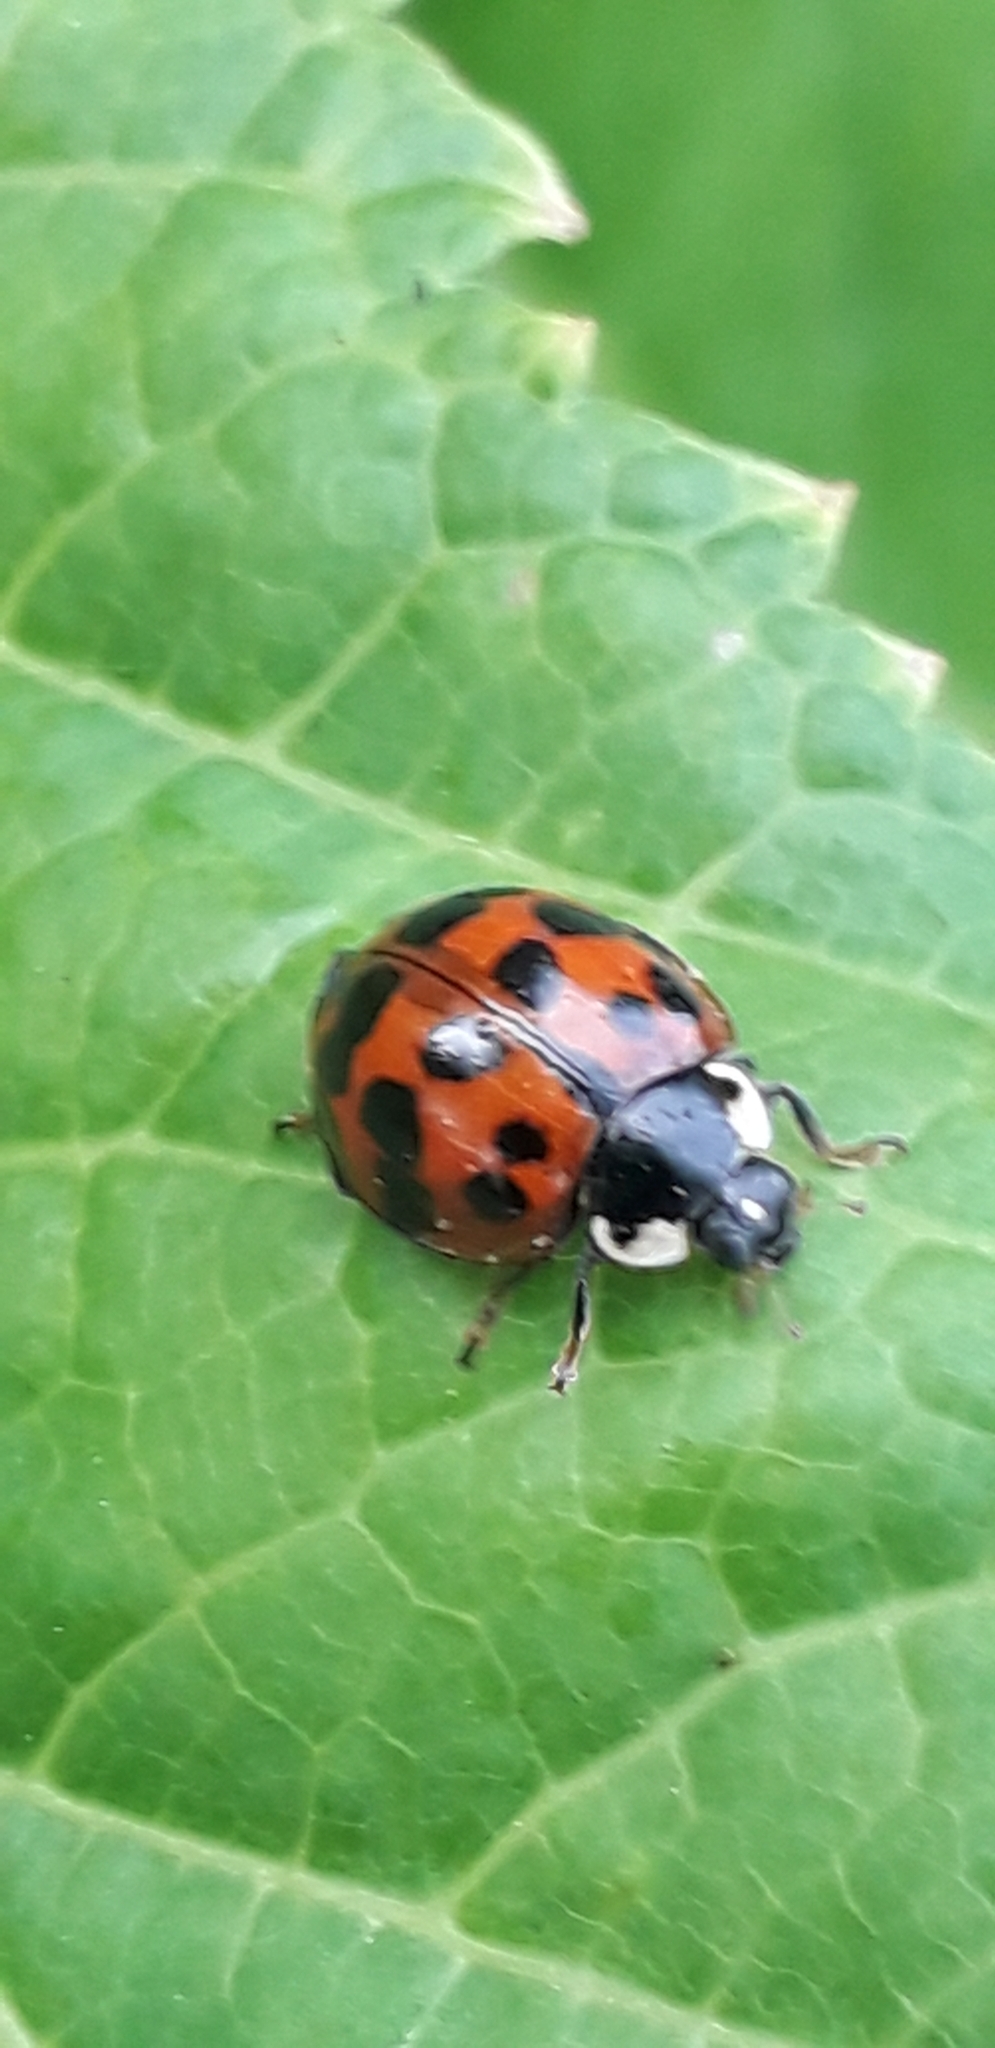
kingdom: Animalia
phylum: Arthropoda
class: Insecta
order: Coleoptera
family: Coccinellidae
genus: Harmonia
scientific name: Harmonia axyridis
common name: Harlequin ladybird
